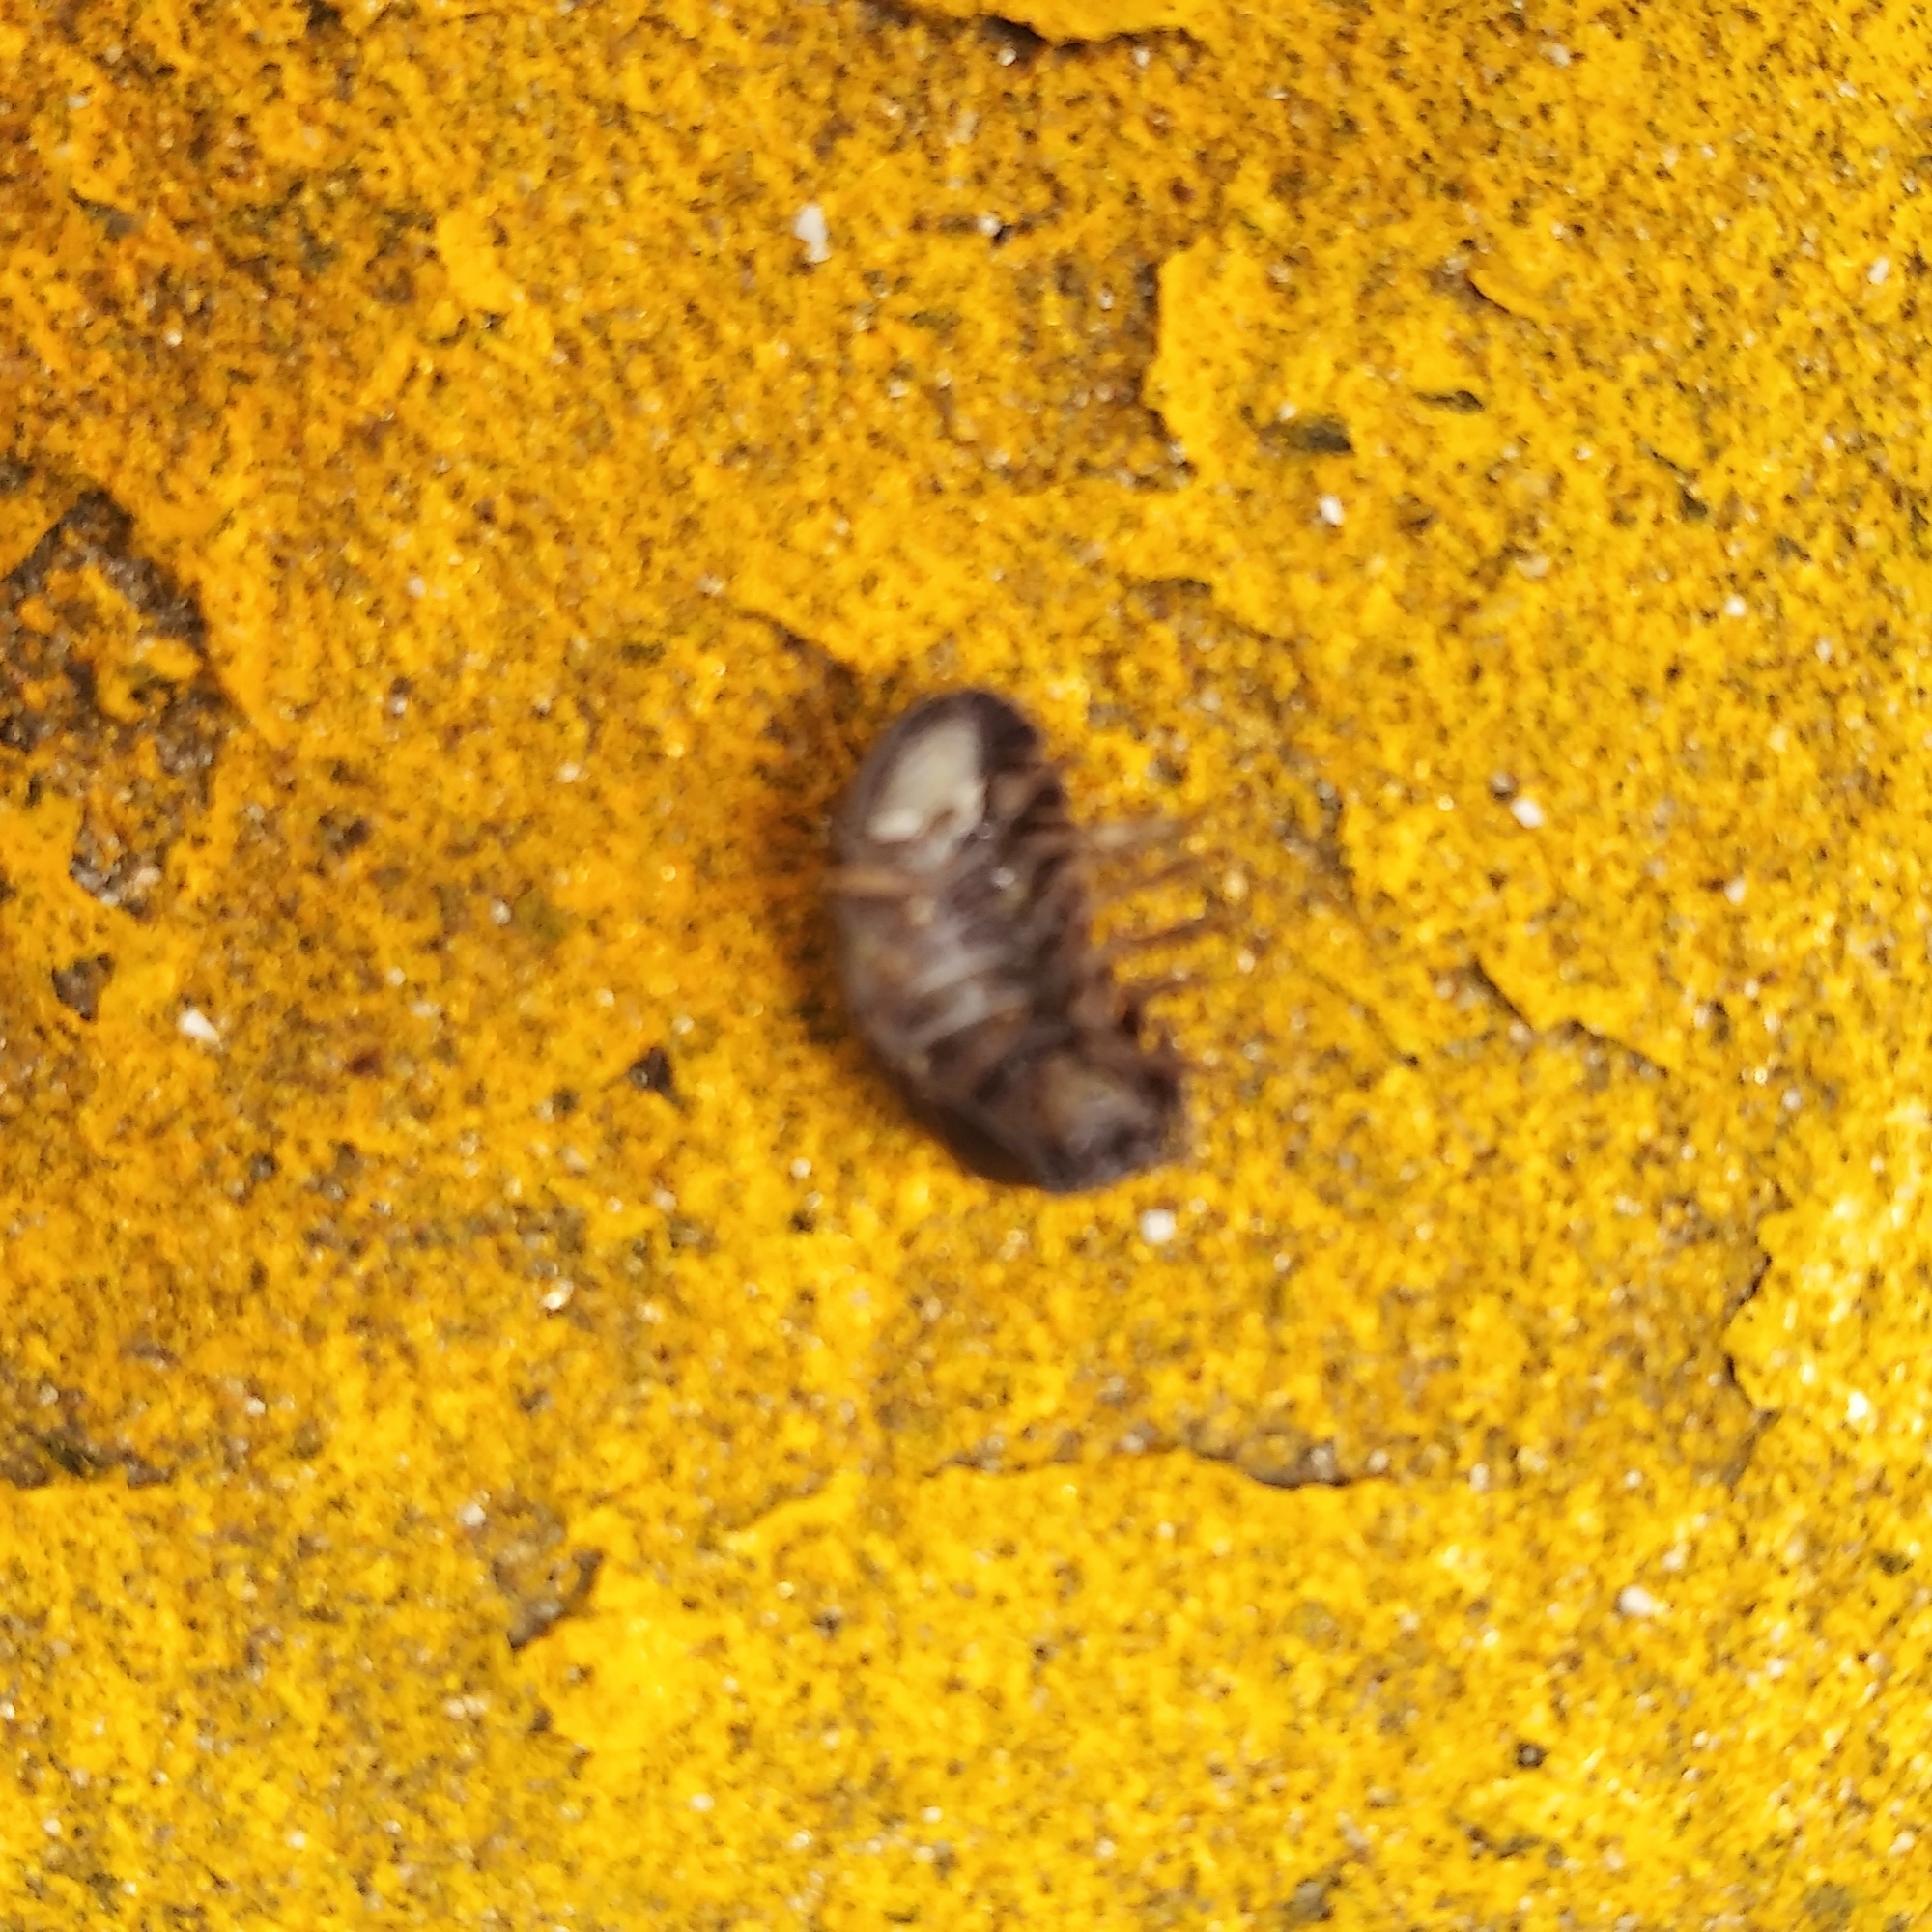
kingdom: Animalia
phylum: Arthropoda
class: Malacostraca
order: Isopoda
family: Armadillidiidae
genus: Armadillidium
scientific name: Armadillidium vulgare
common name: Common pill woodlouse
